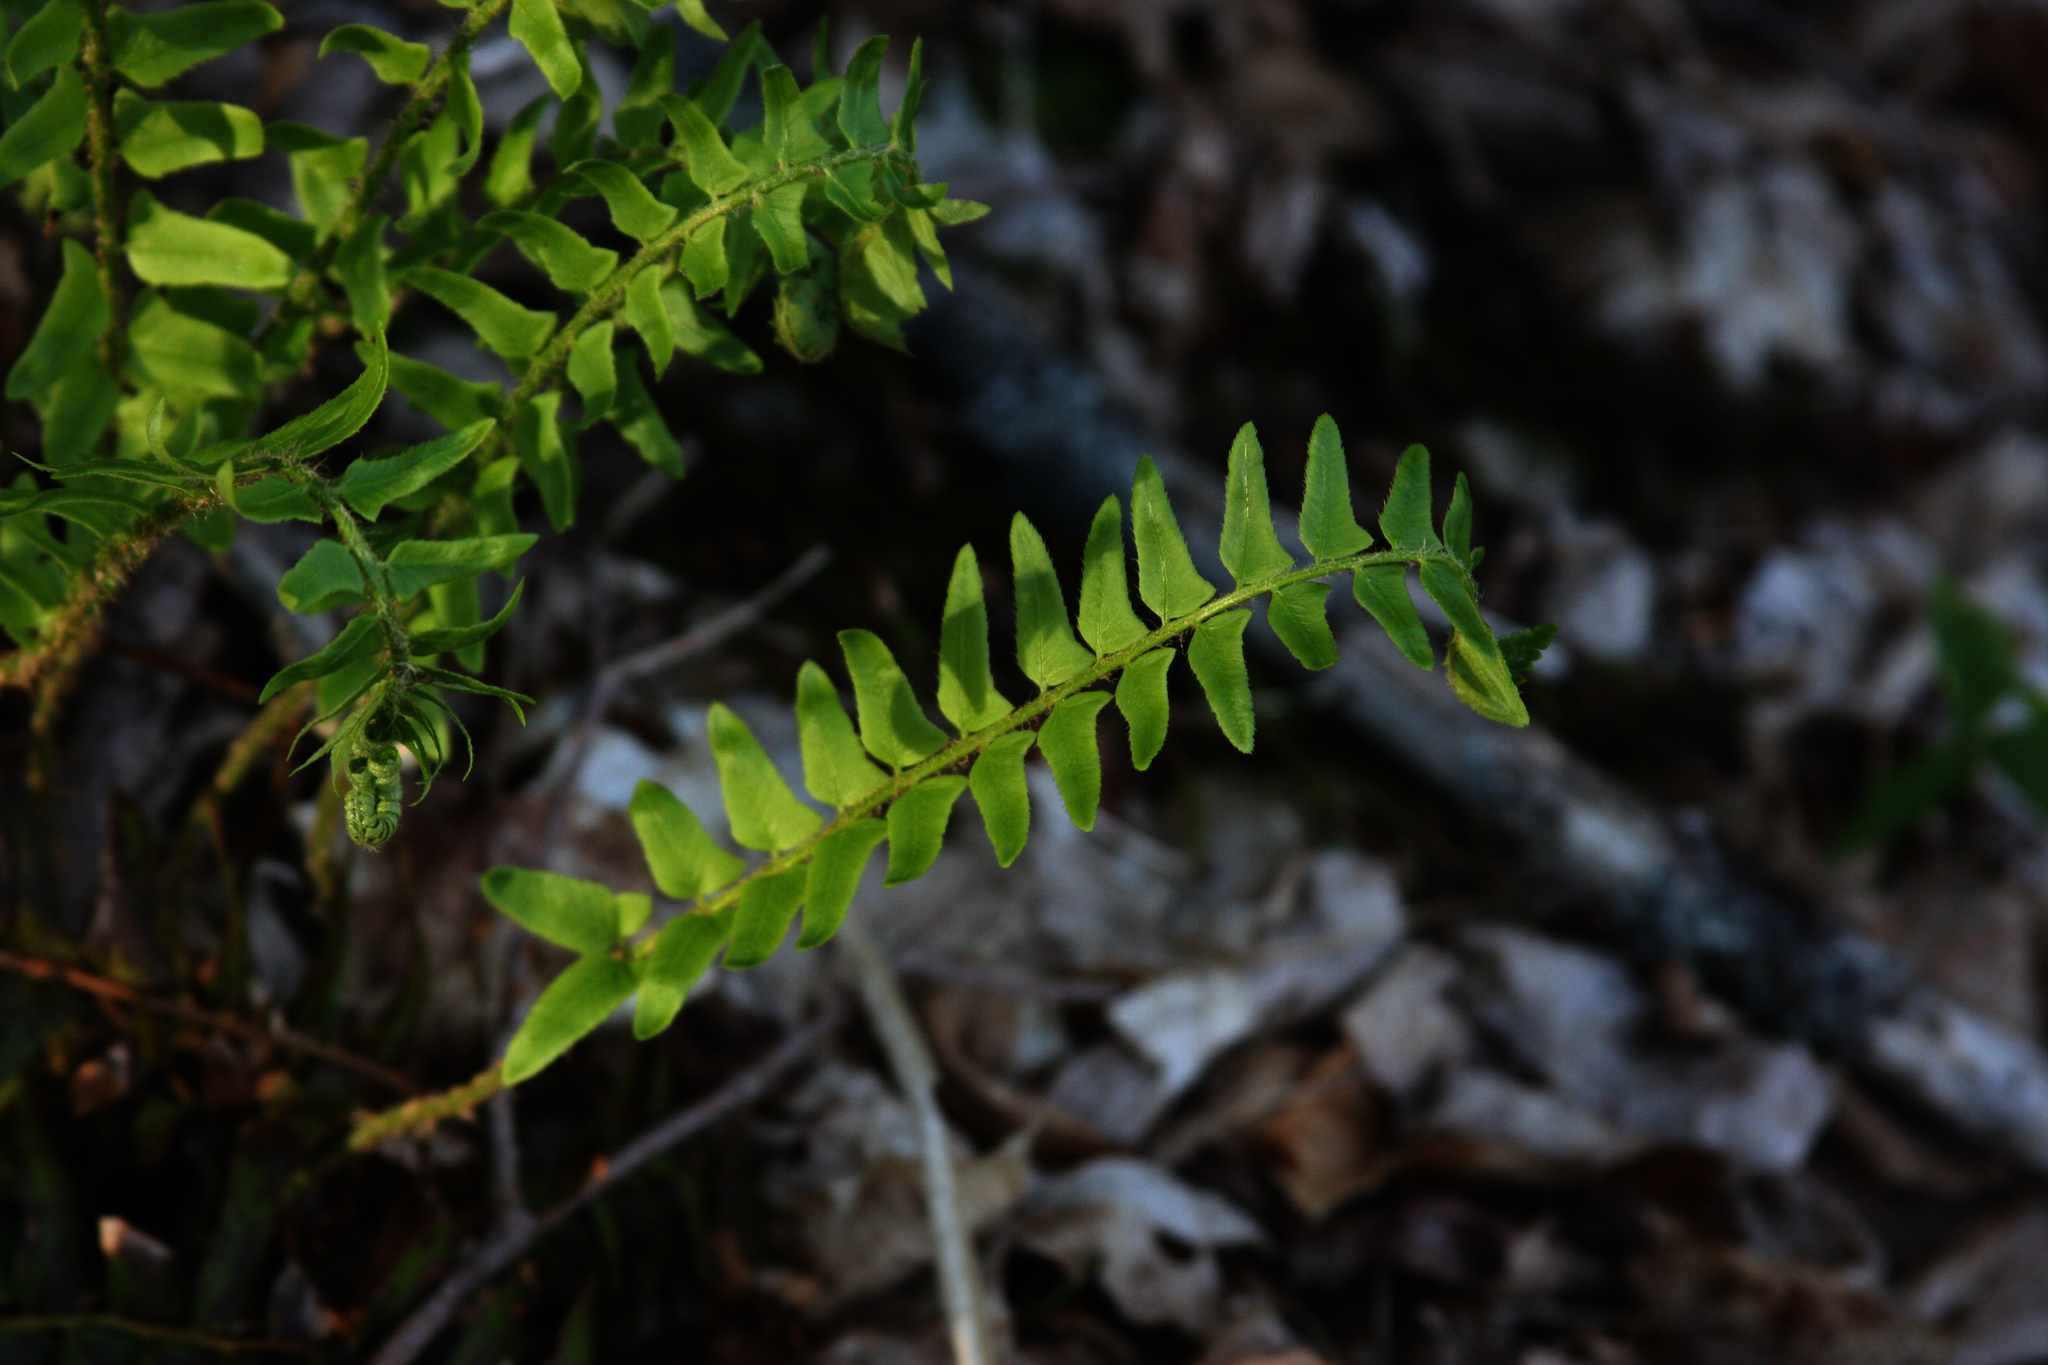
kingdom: Plantae
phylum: Tracheophyta
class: Polypodiopsida
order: Polypodiales
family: Dryopteridaceae
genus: Polystichum
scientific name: Polystichum acrostichoides
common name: Christmas fern
